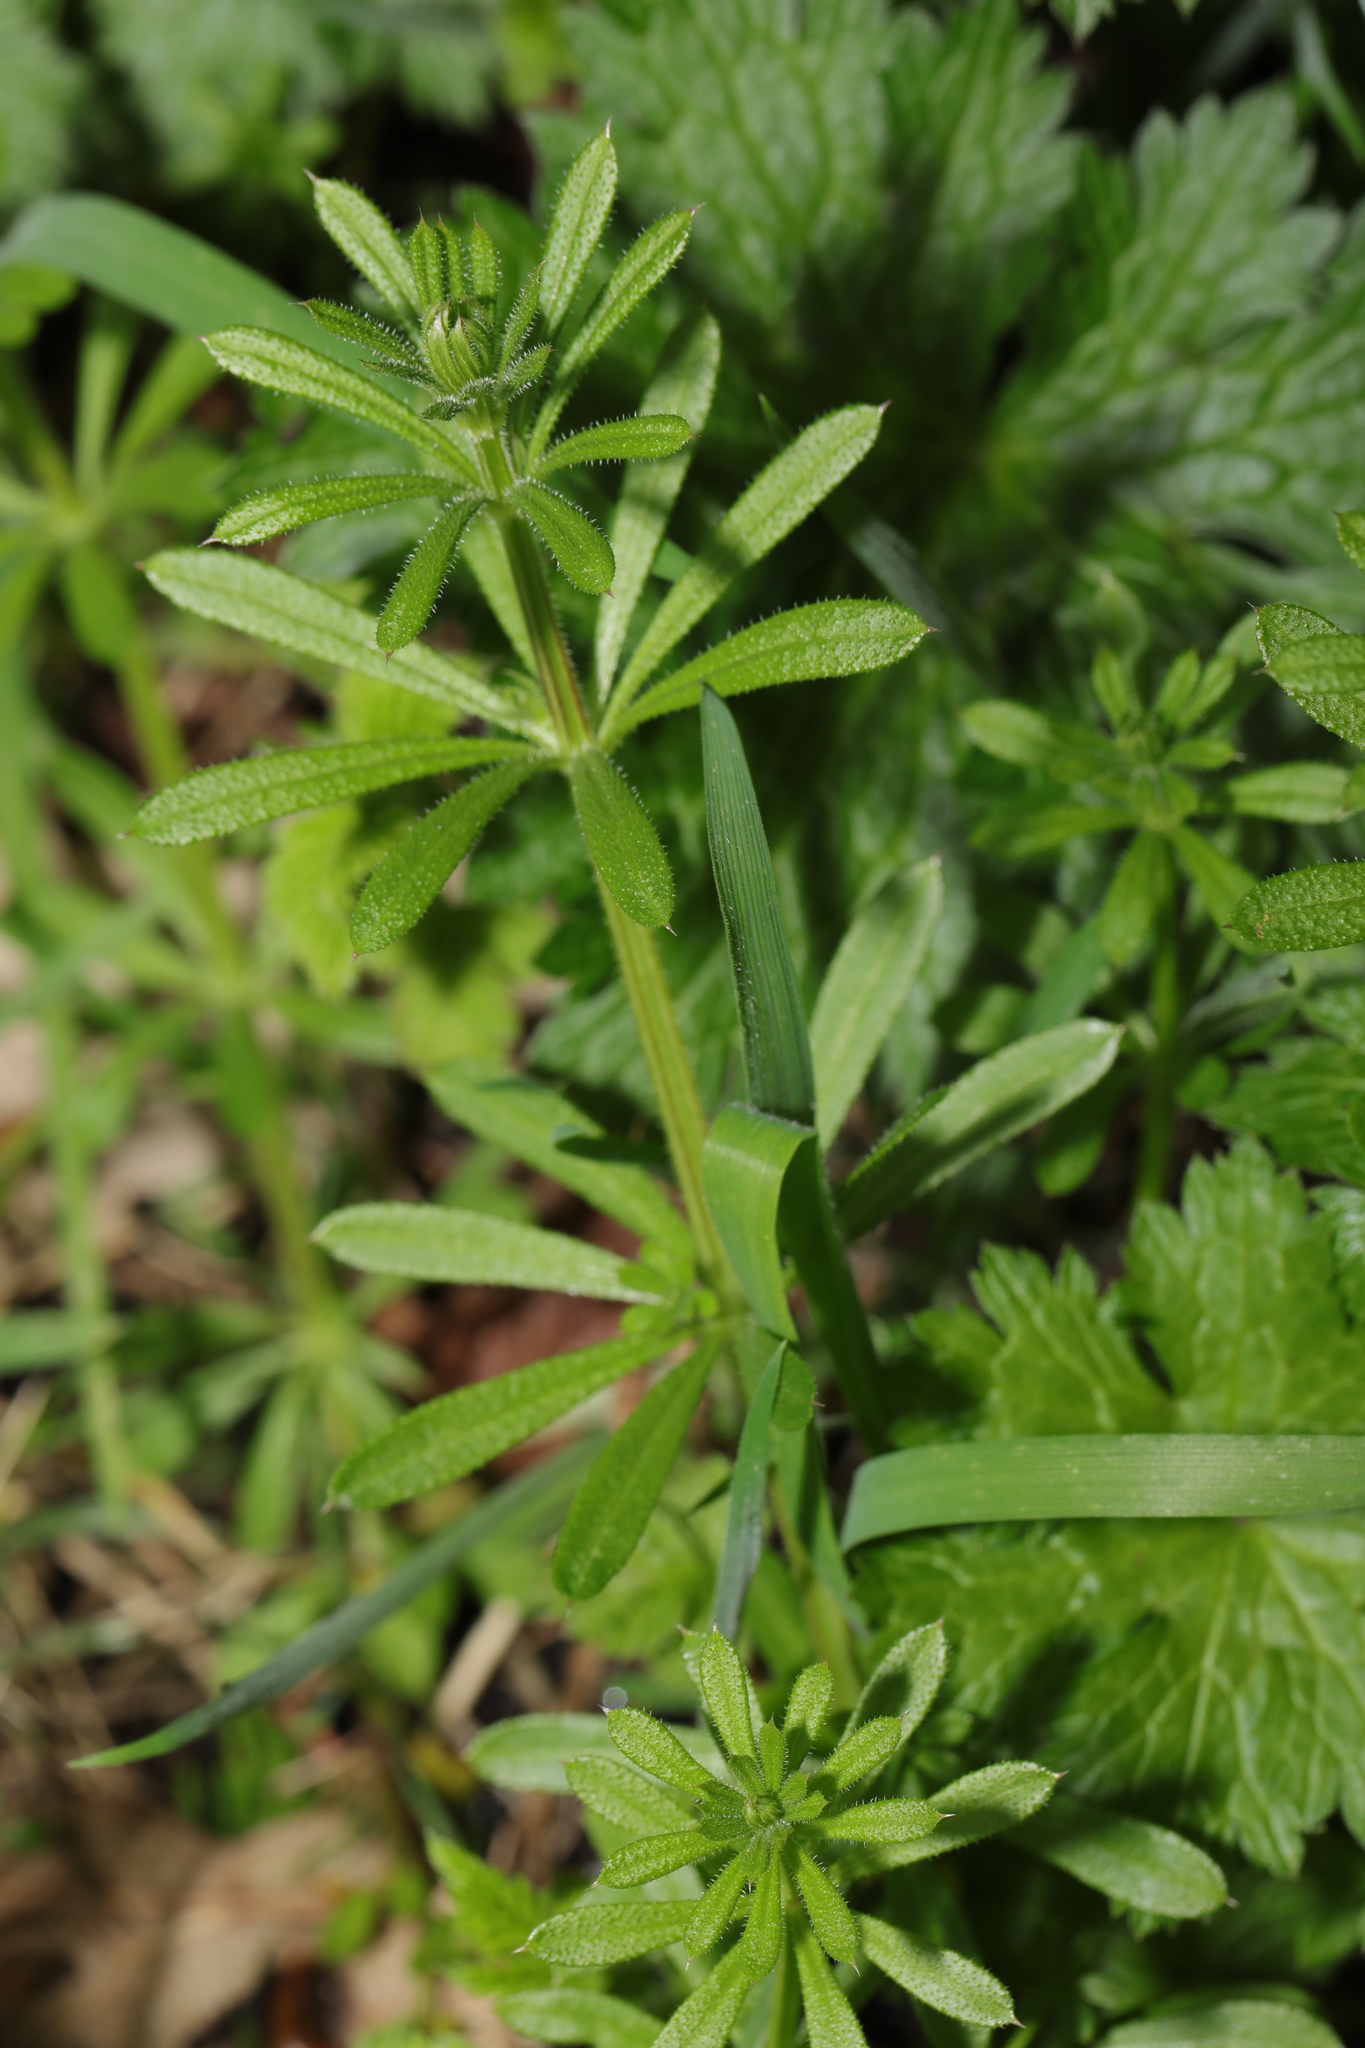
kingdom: Plantae
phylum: Tracheophyta
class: Magnoliopsida
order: Gentianales
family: Rubiaceae
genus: Galium
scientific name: Galium aparine
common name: Cleavers
